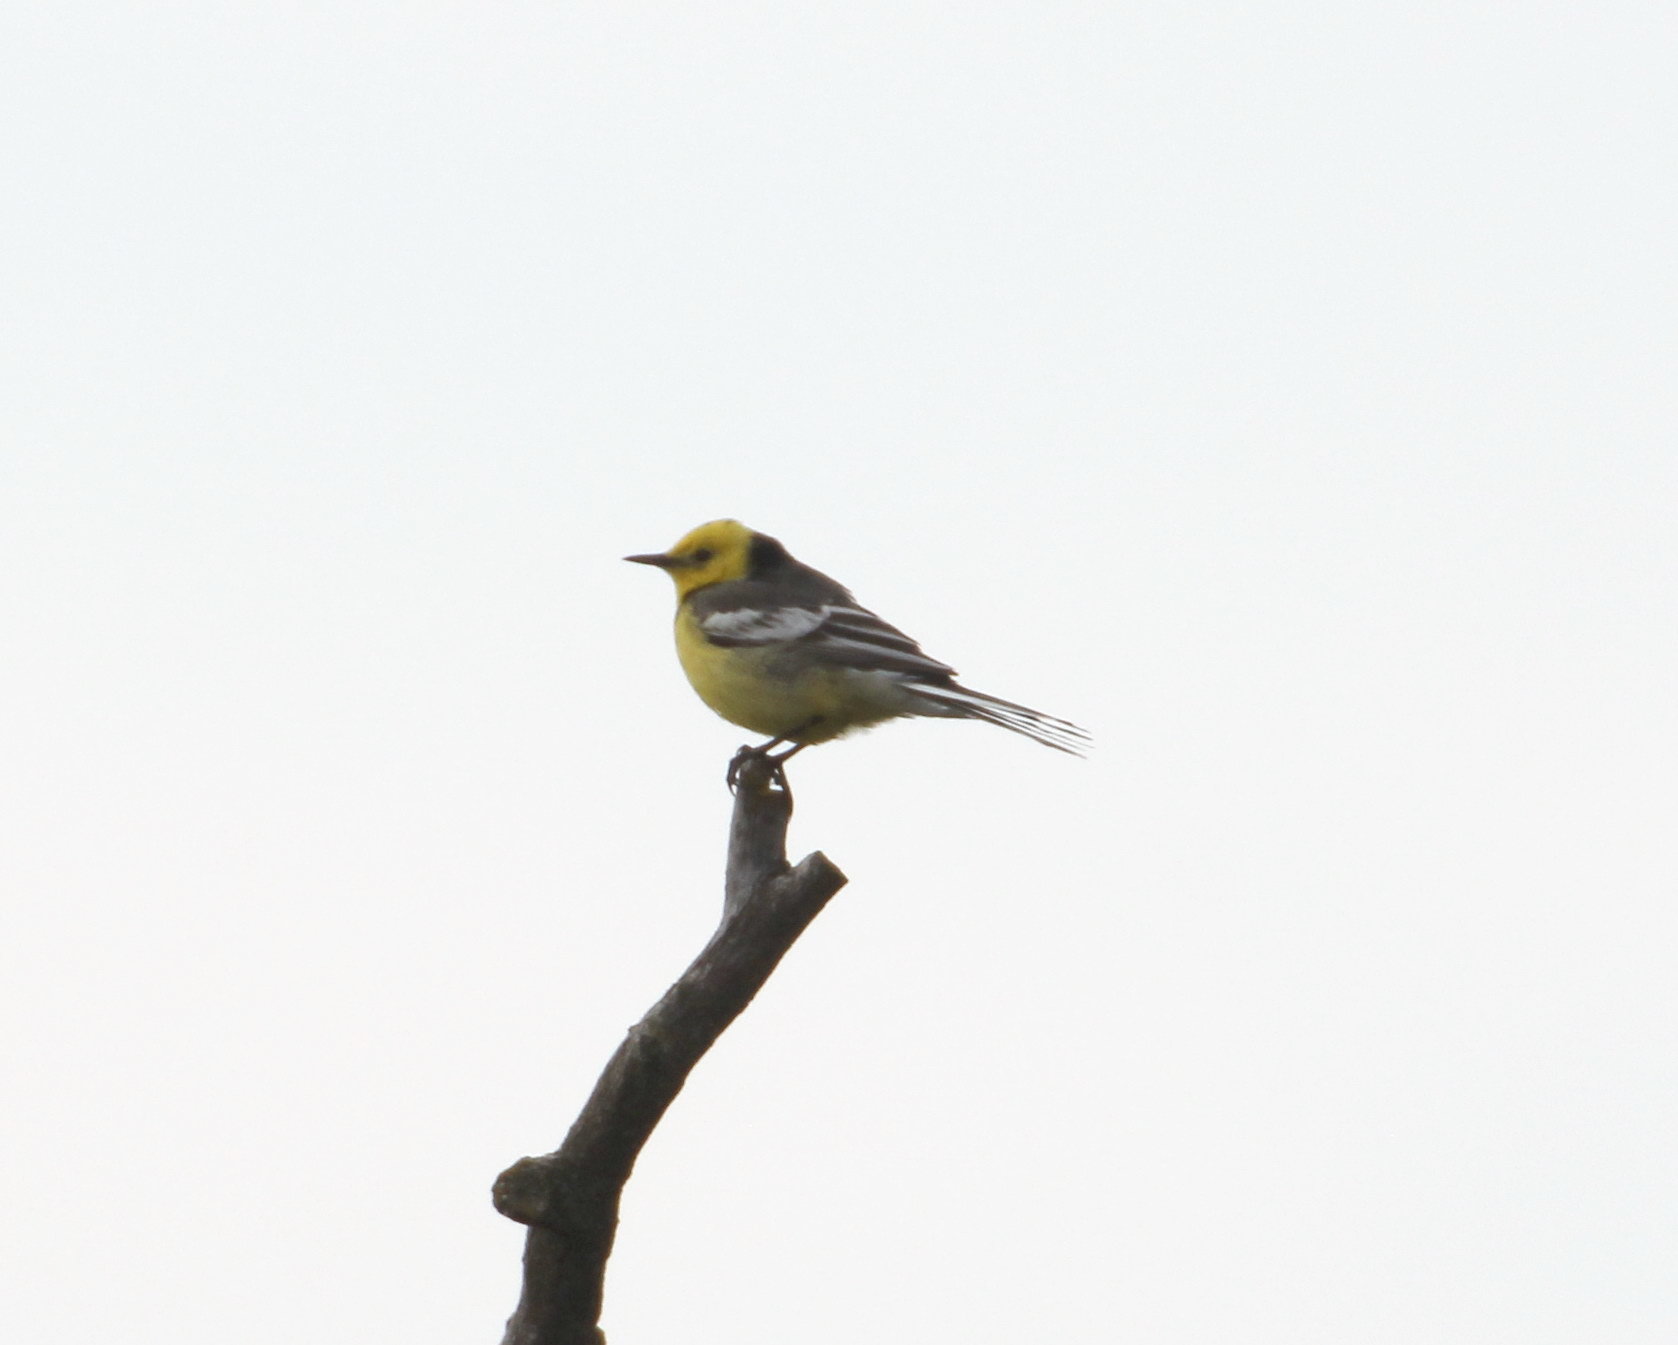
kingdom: Animalia
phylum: Chordata
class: Aves
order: Passeriformes
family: Motacillidae
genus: Motacilla
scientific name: Motacilla citreola
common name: Citrine wagtail
